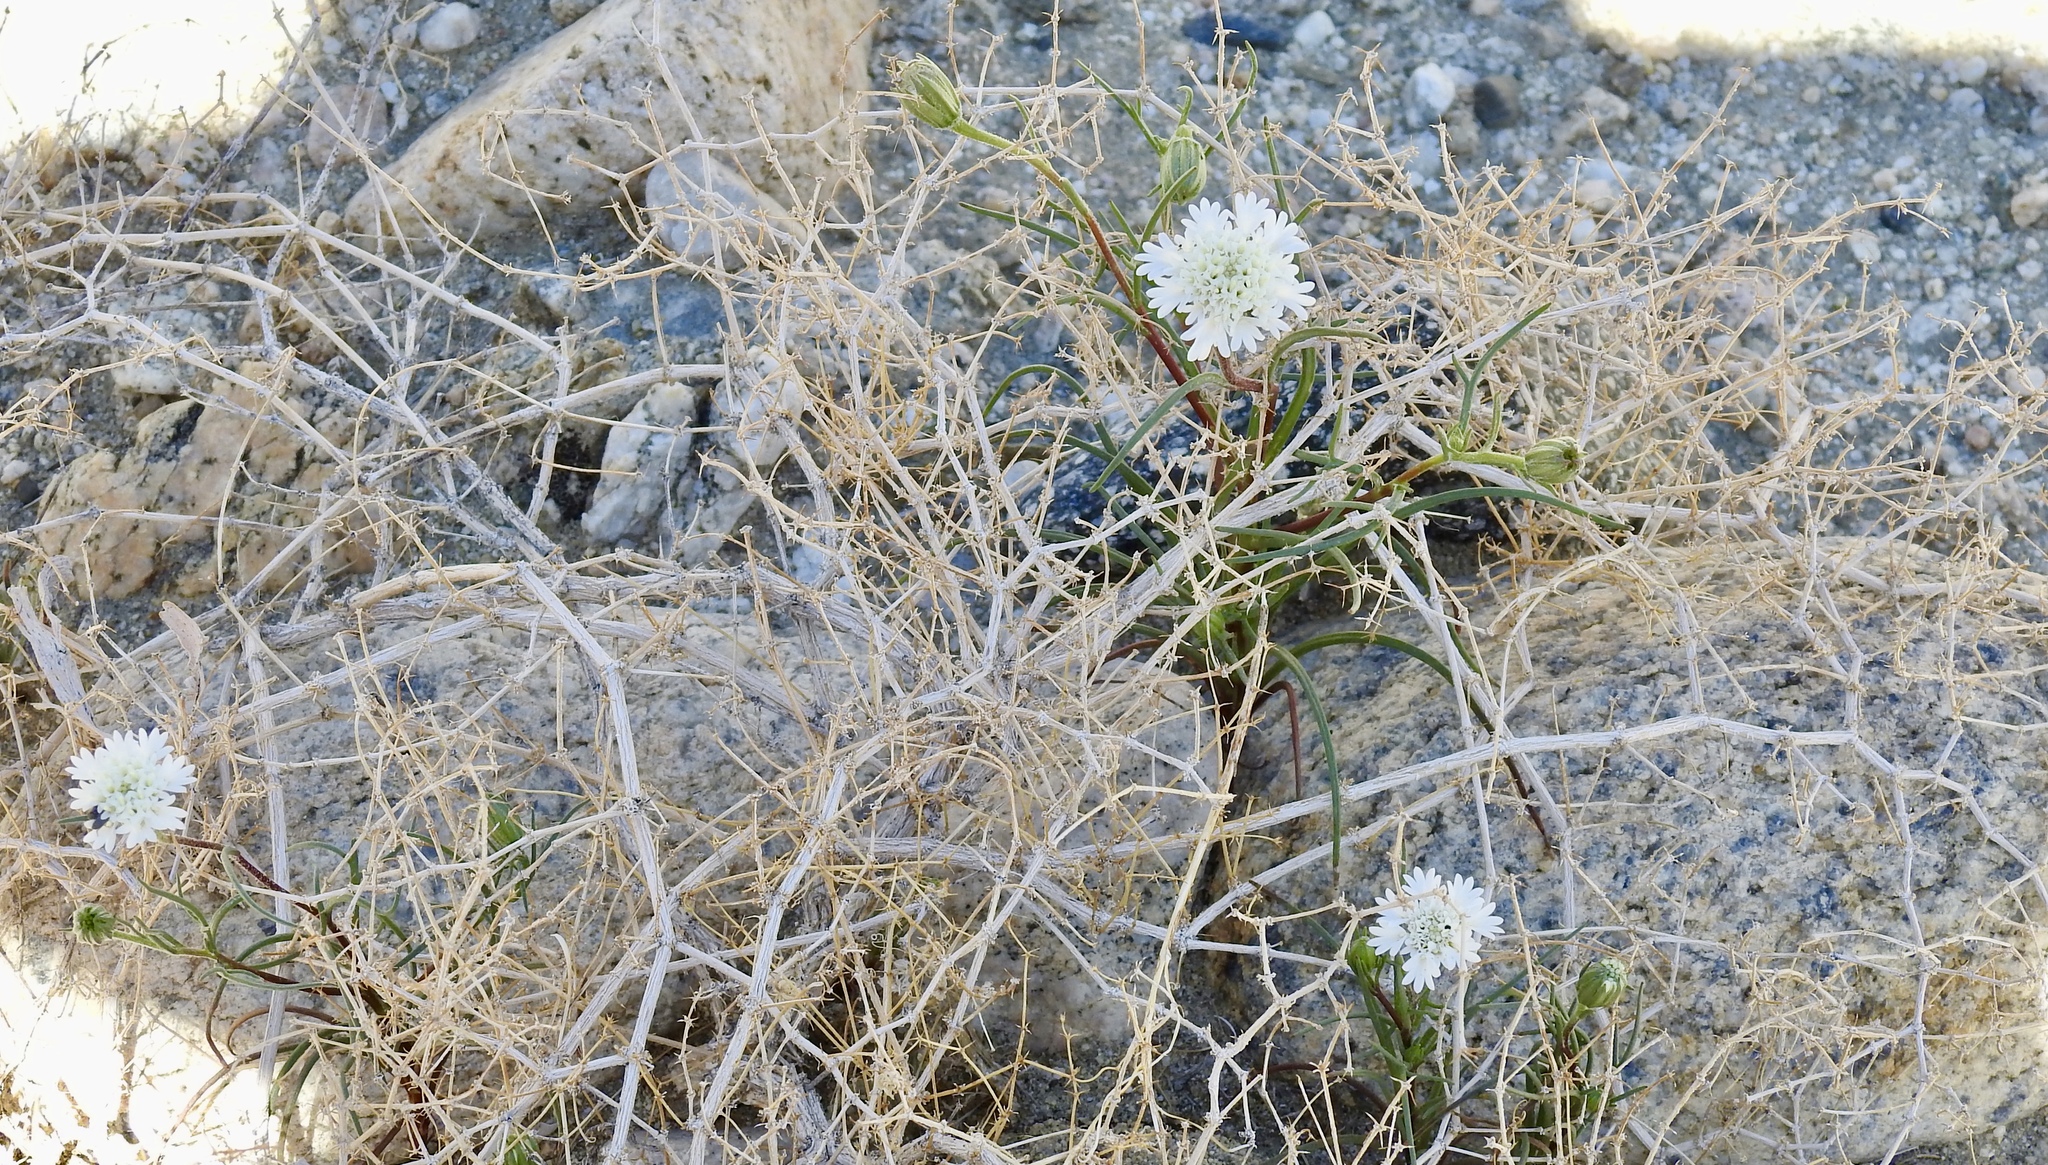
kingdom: Plantae
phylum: Tracheophyta
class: Magnoliopsida
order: Asterales
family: Asteraceae
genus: Chaenactis
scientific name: Chaenactis fremontii
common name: Fremont pincushion
